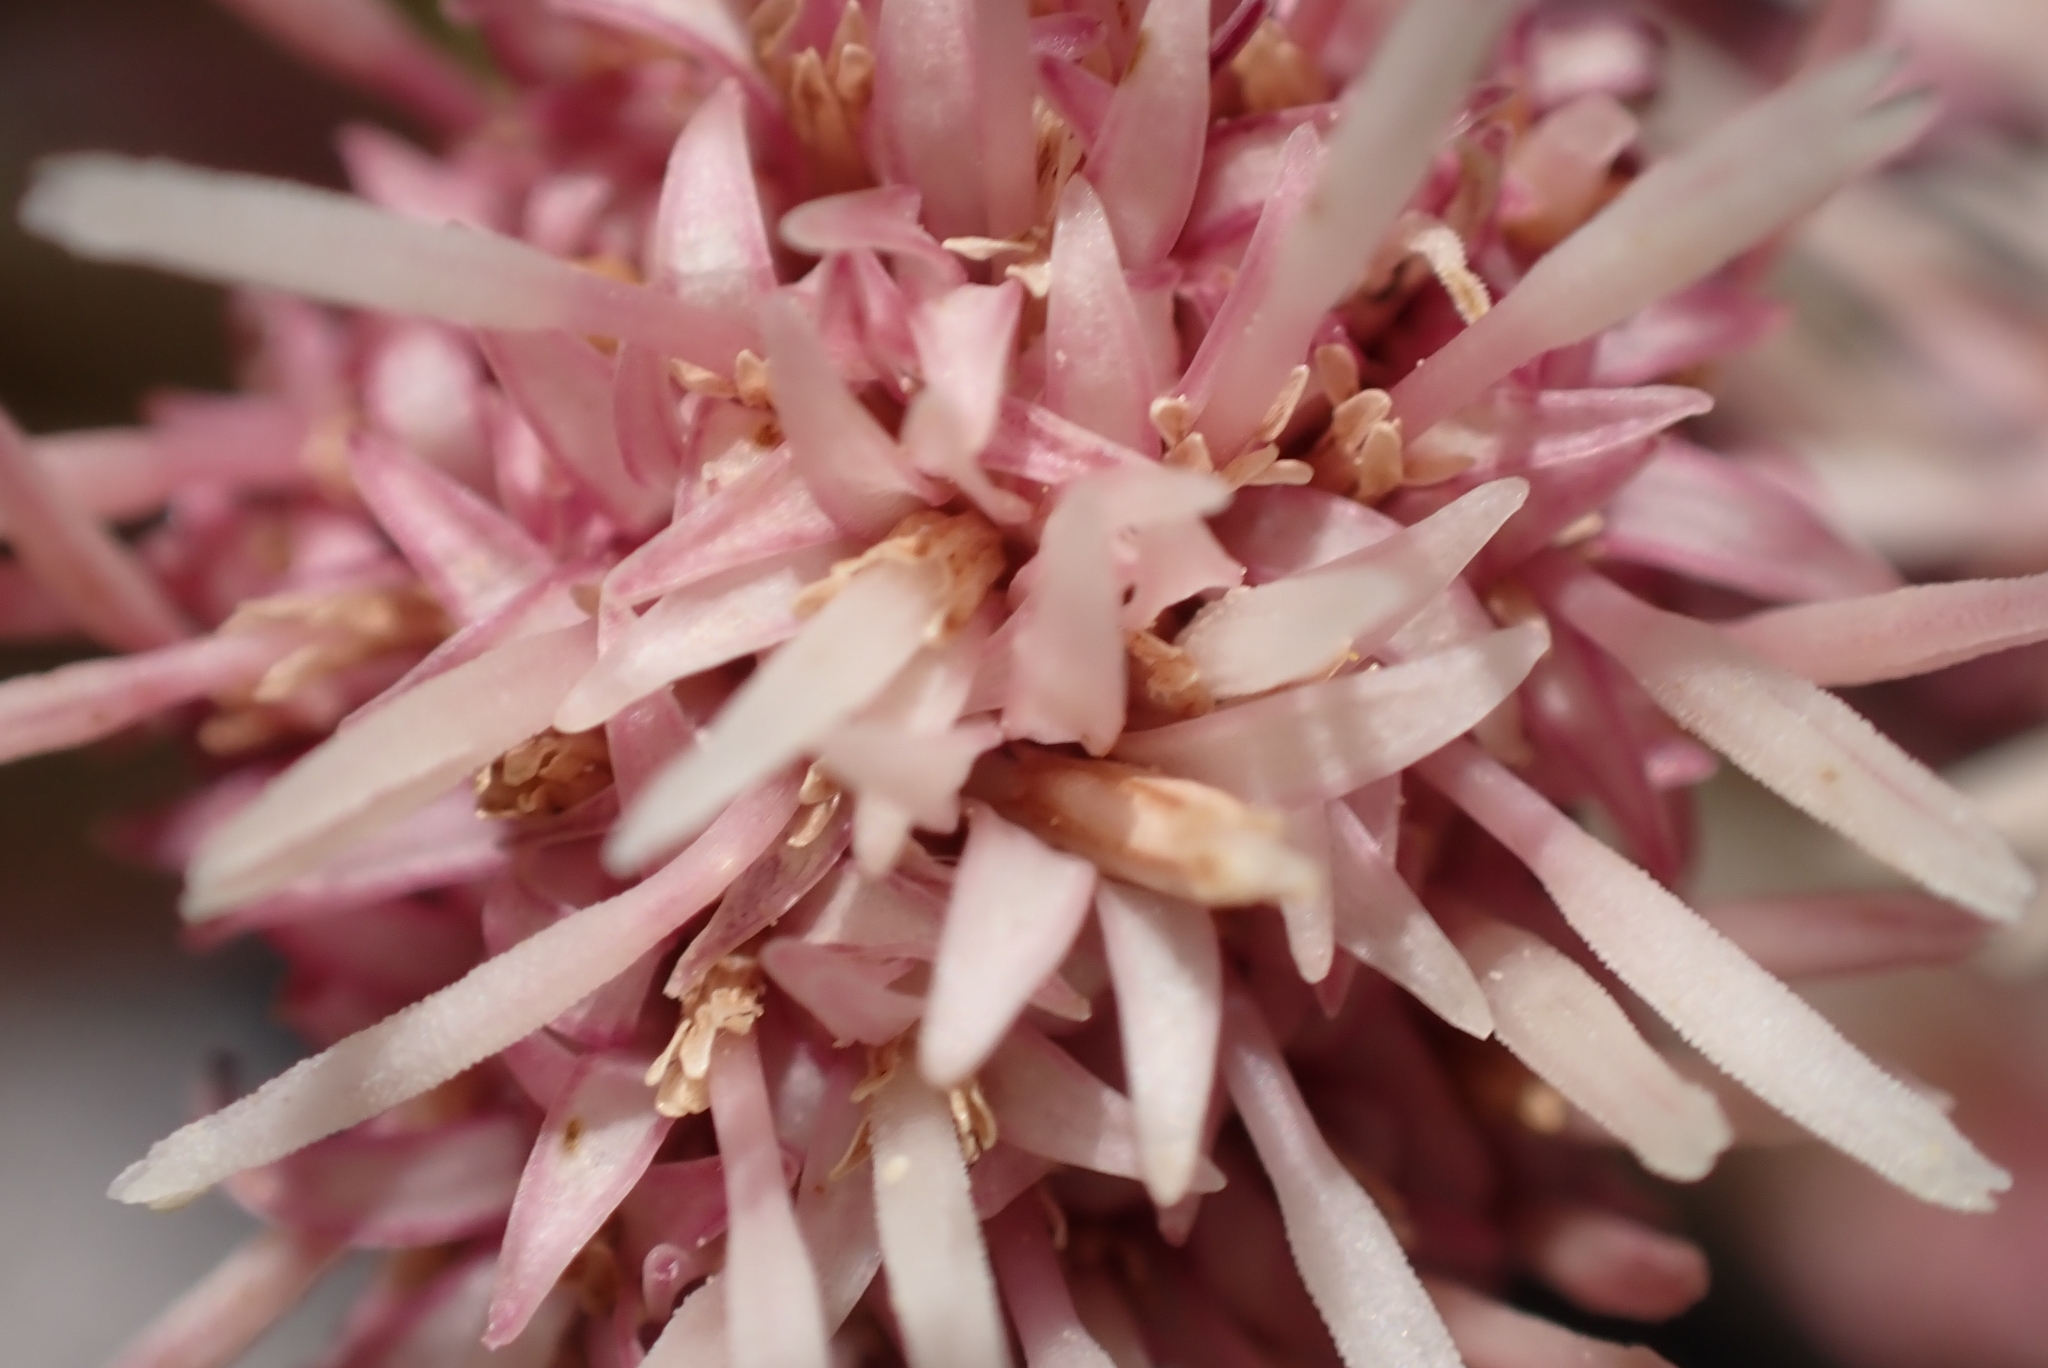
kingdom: Plantae
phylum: Tracheophyta
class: Magnoliopsida
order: Asterales
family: Asteraceae
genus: Petasites
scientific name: Petasites paradoxus
